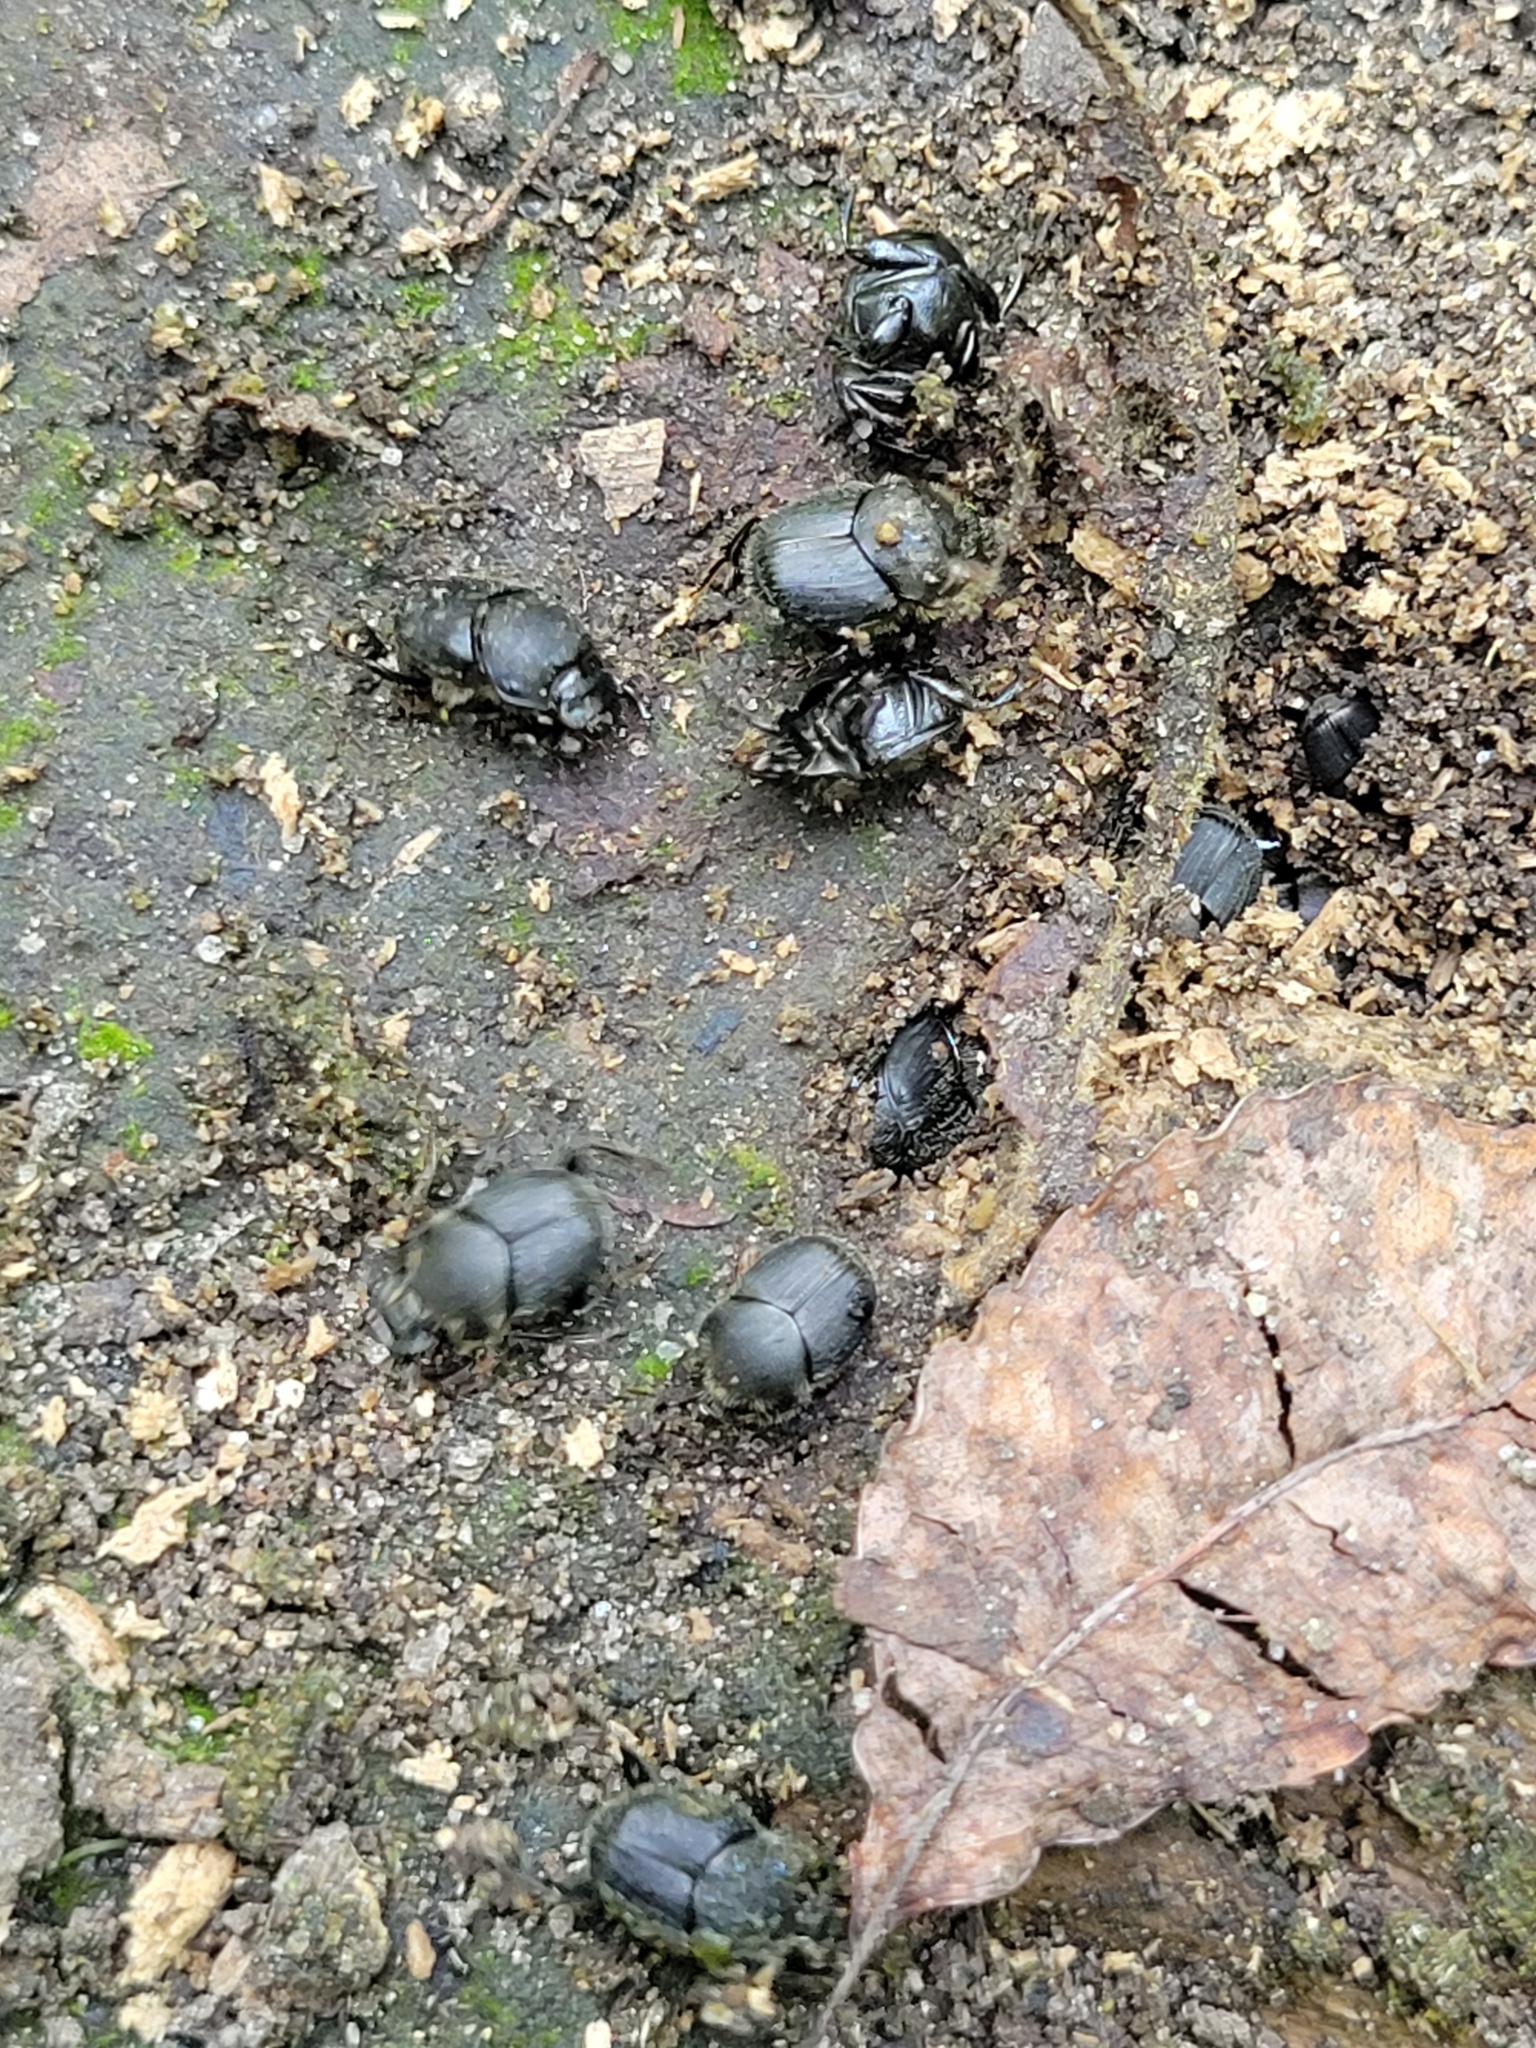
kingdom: Animalia
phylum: Arthropoda
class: Insecta
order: Coleoptera
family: Scarabaeidae
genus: Onthophagus
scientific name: Onthophagus hecate
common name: Scooped scarab
